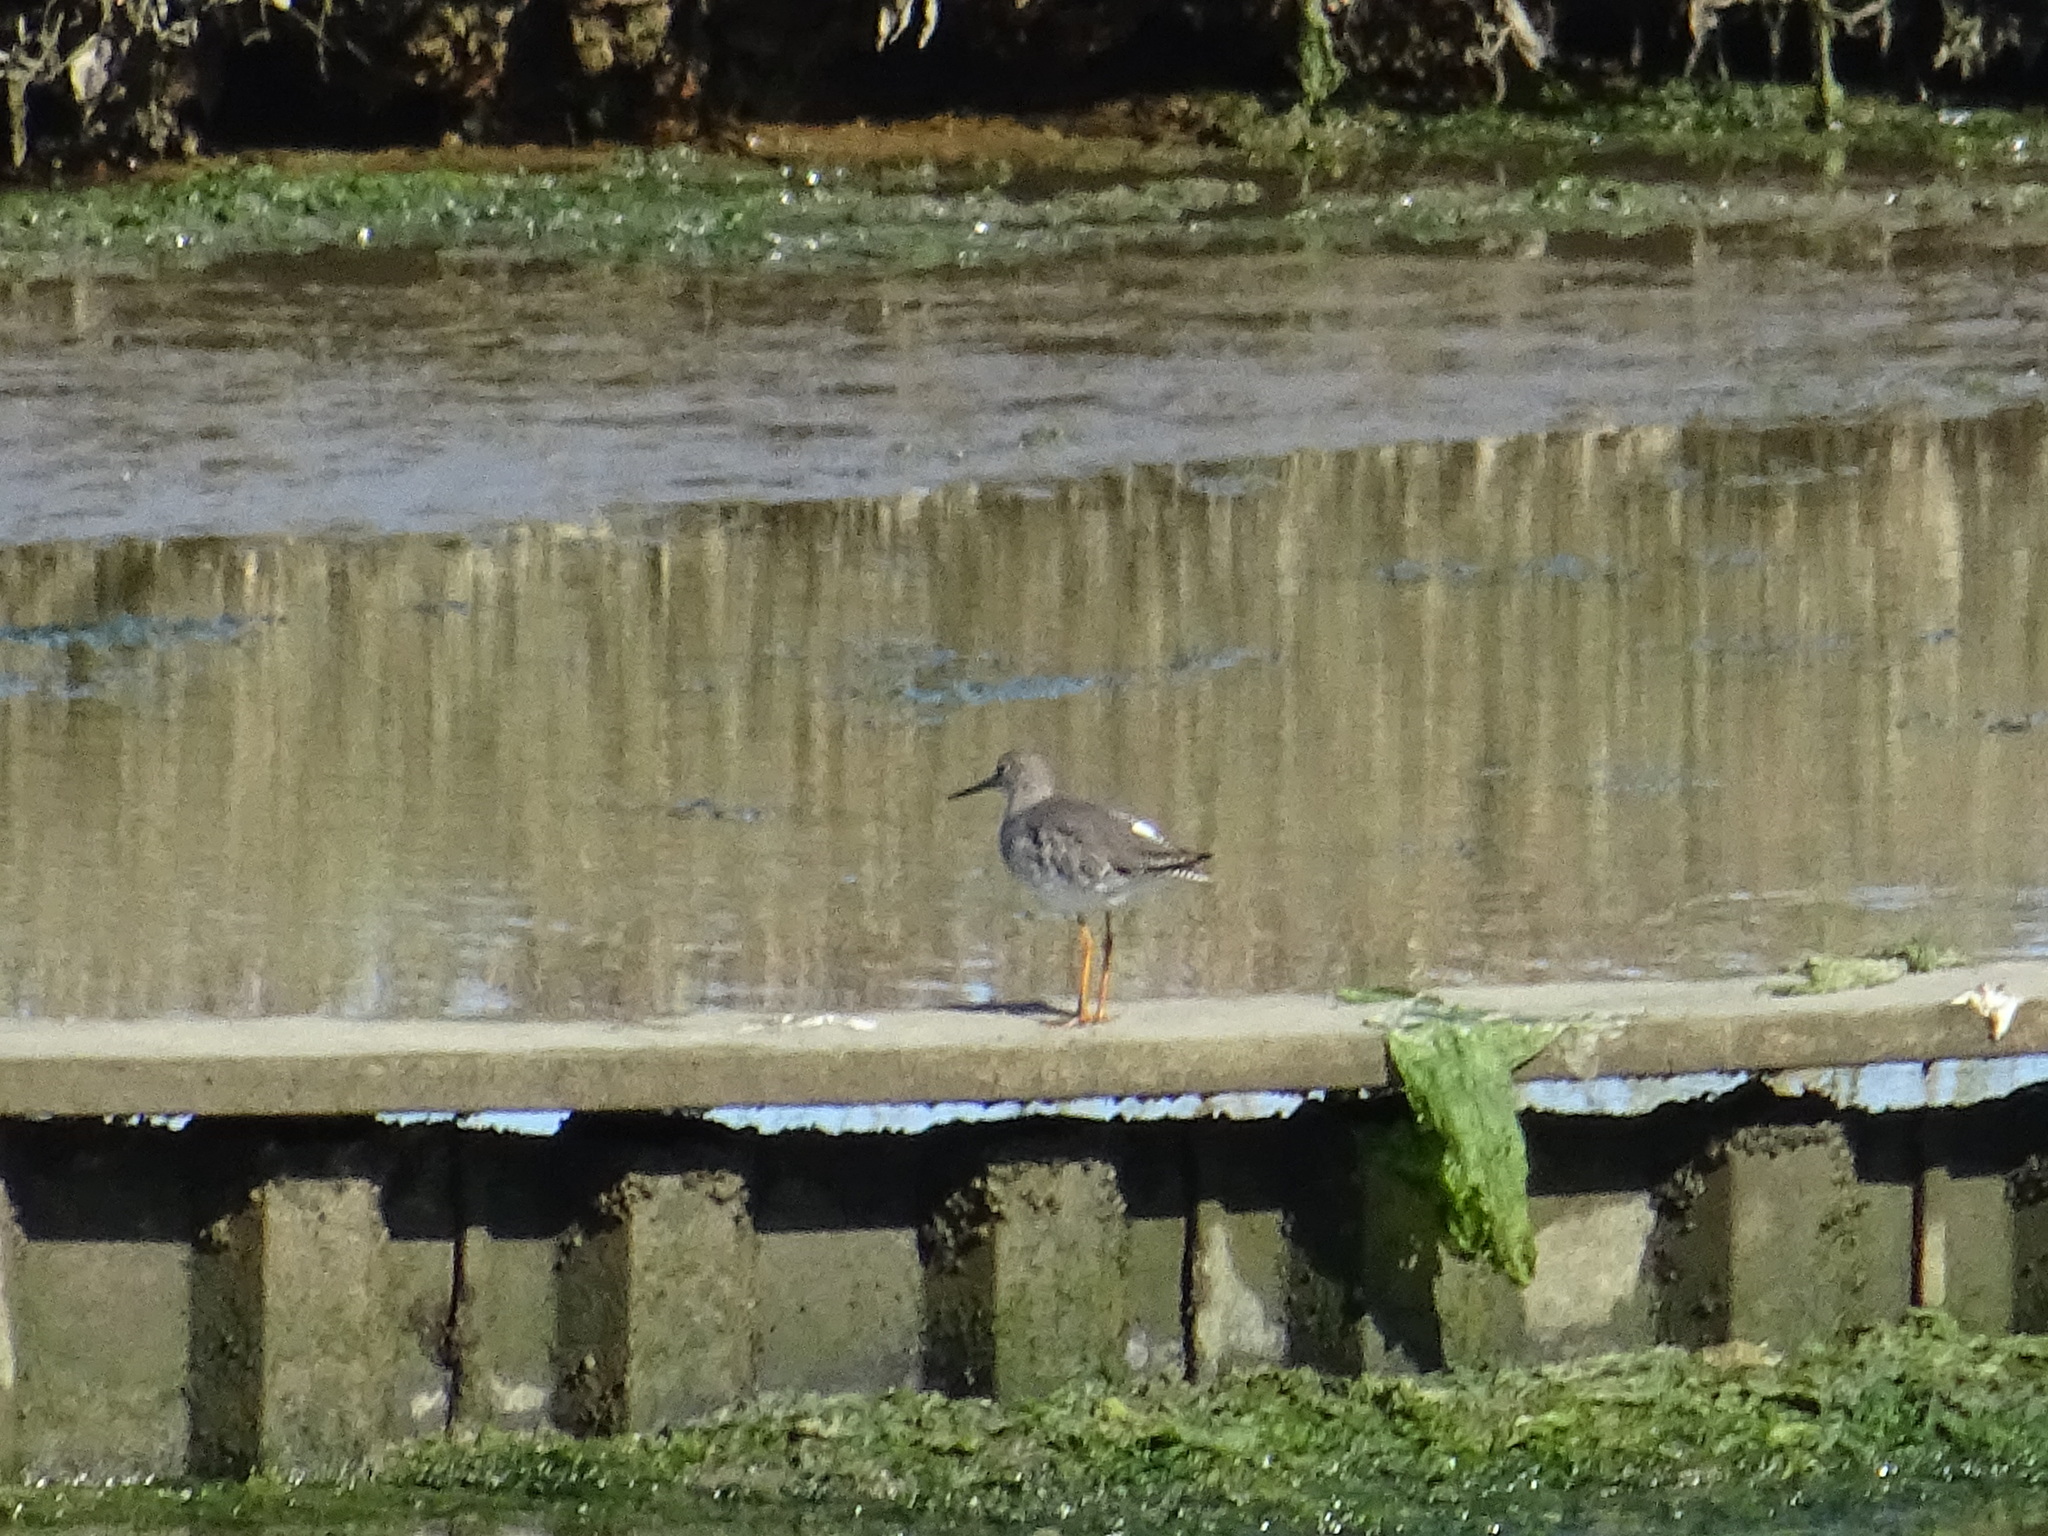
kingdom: Animalia
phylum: Chordata
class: Aves
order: Charadriiformes
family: Scolopacidae
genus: Tringa
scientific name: Tringa totanus
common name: Common redshank
